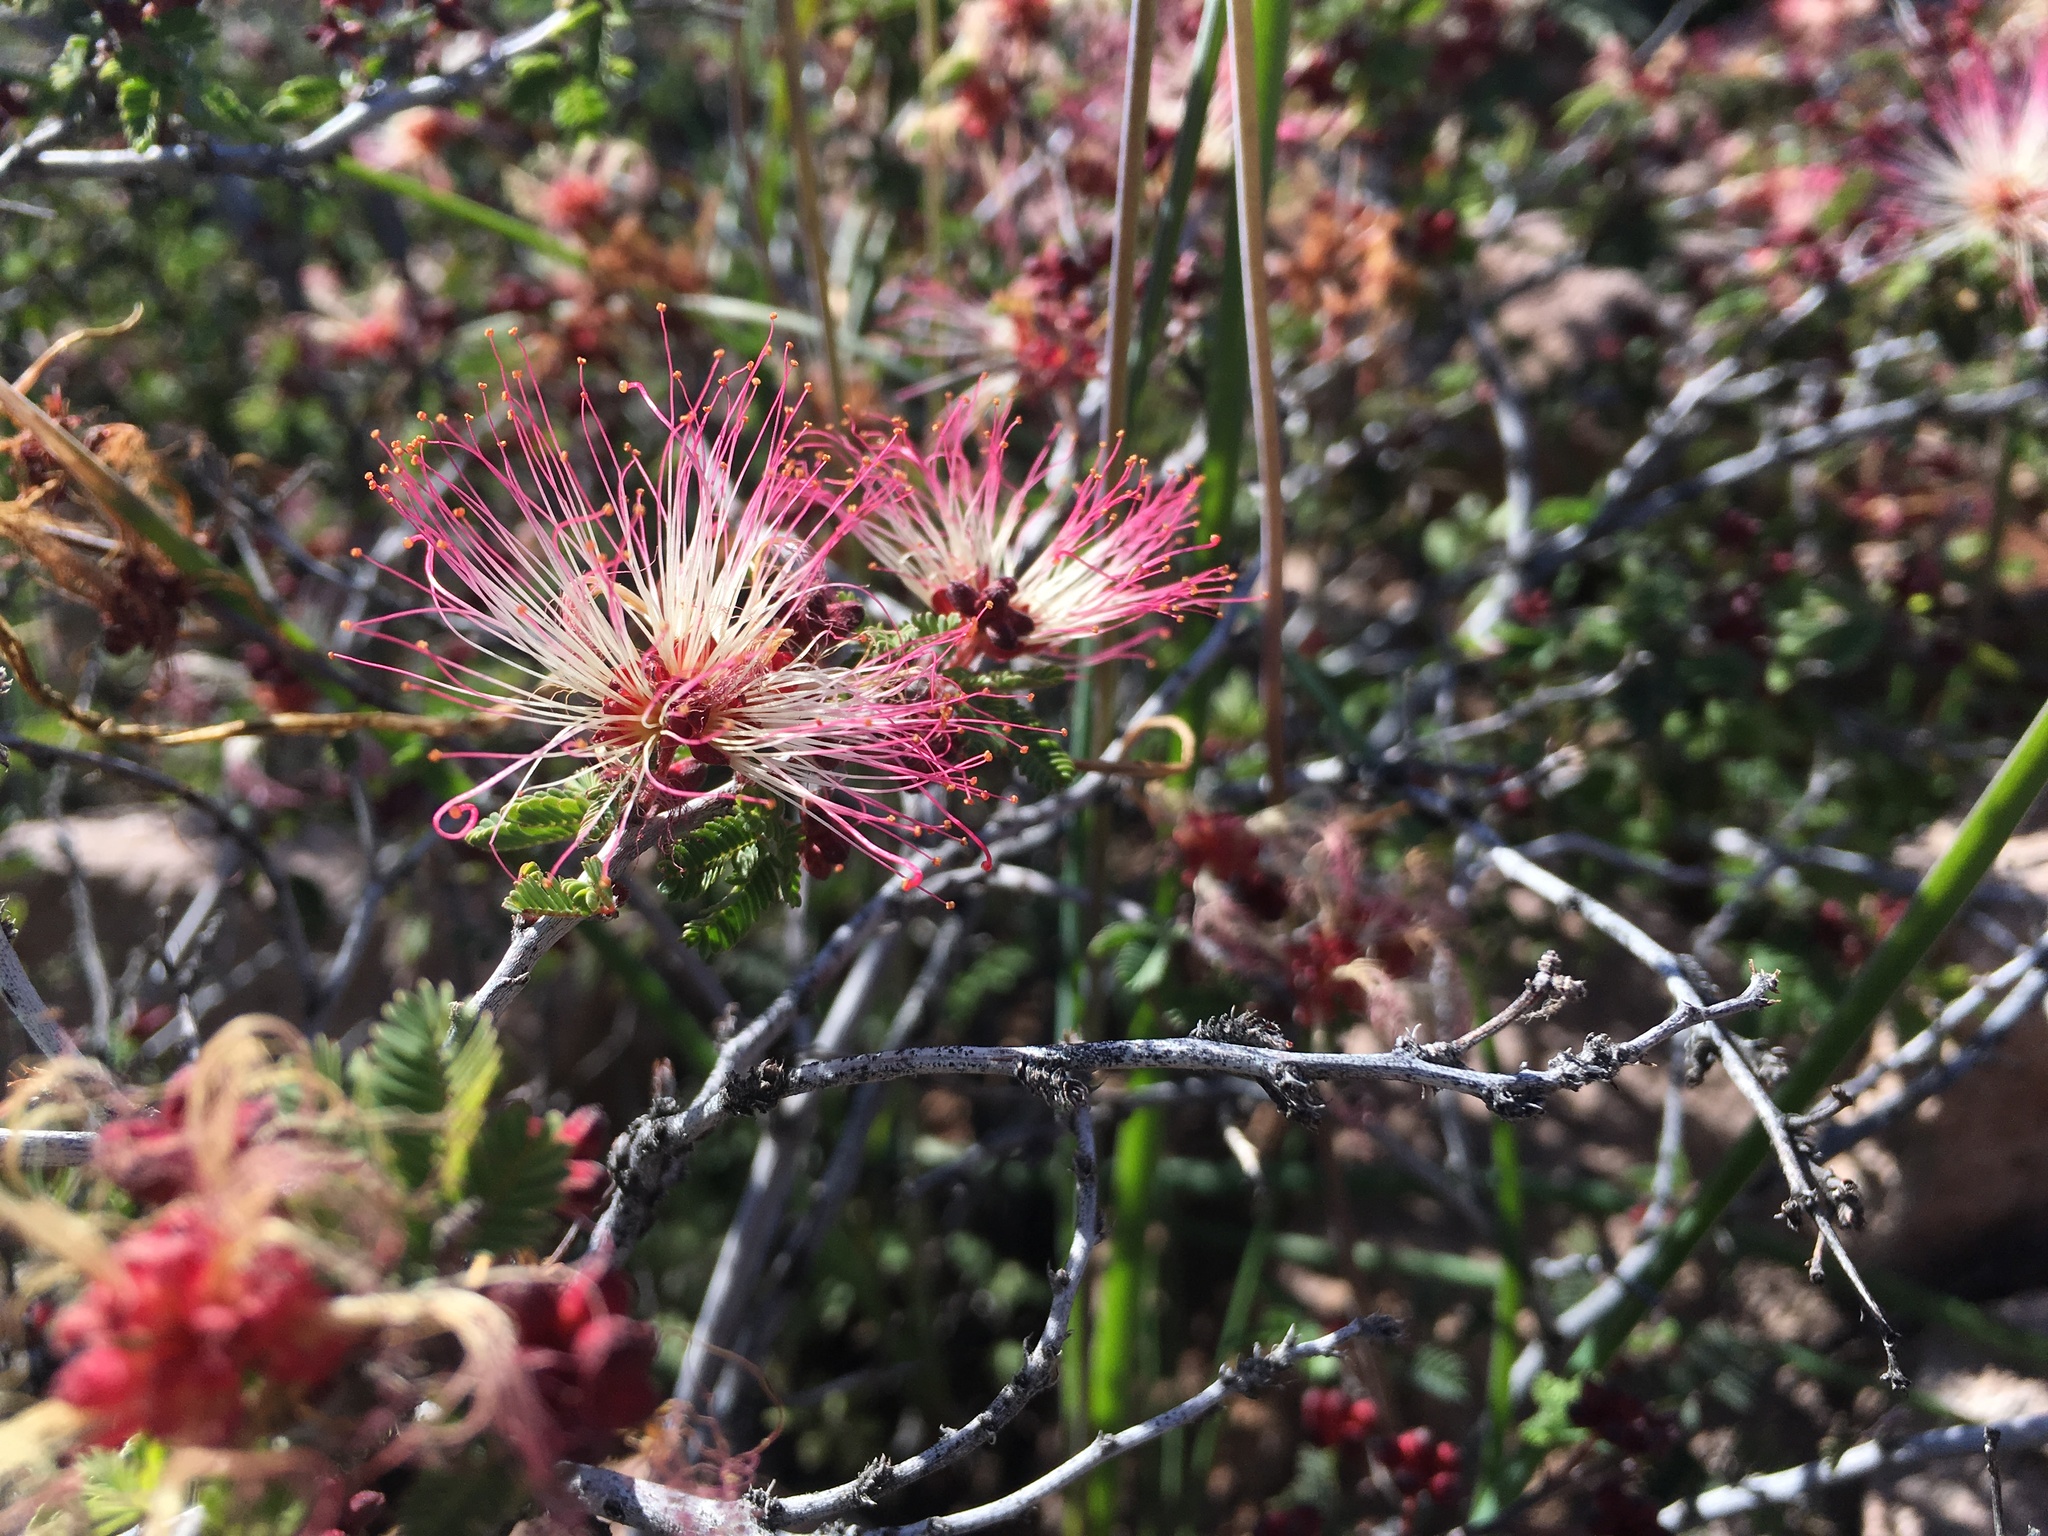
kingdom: Plantae
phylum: Tracheophyta
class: Magnoliopsida
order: Fabales
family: Fabaceae
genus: Calliandra
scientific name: Calliandra eriophylla
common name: Fairy-duster
